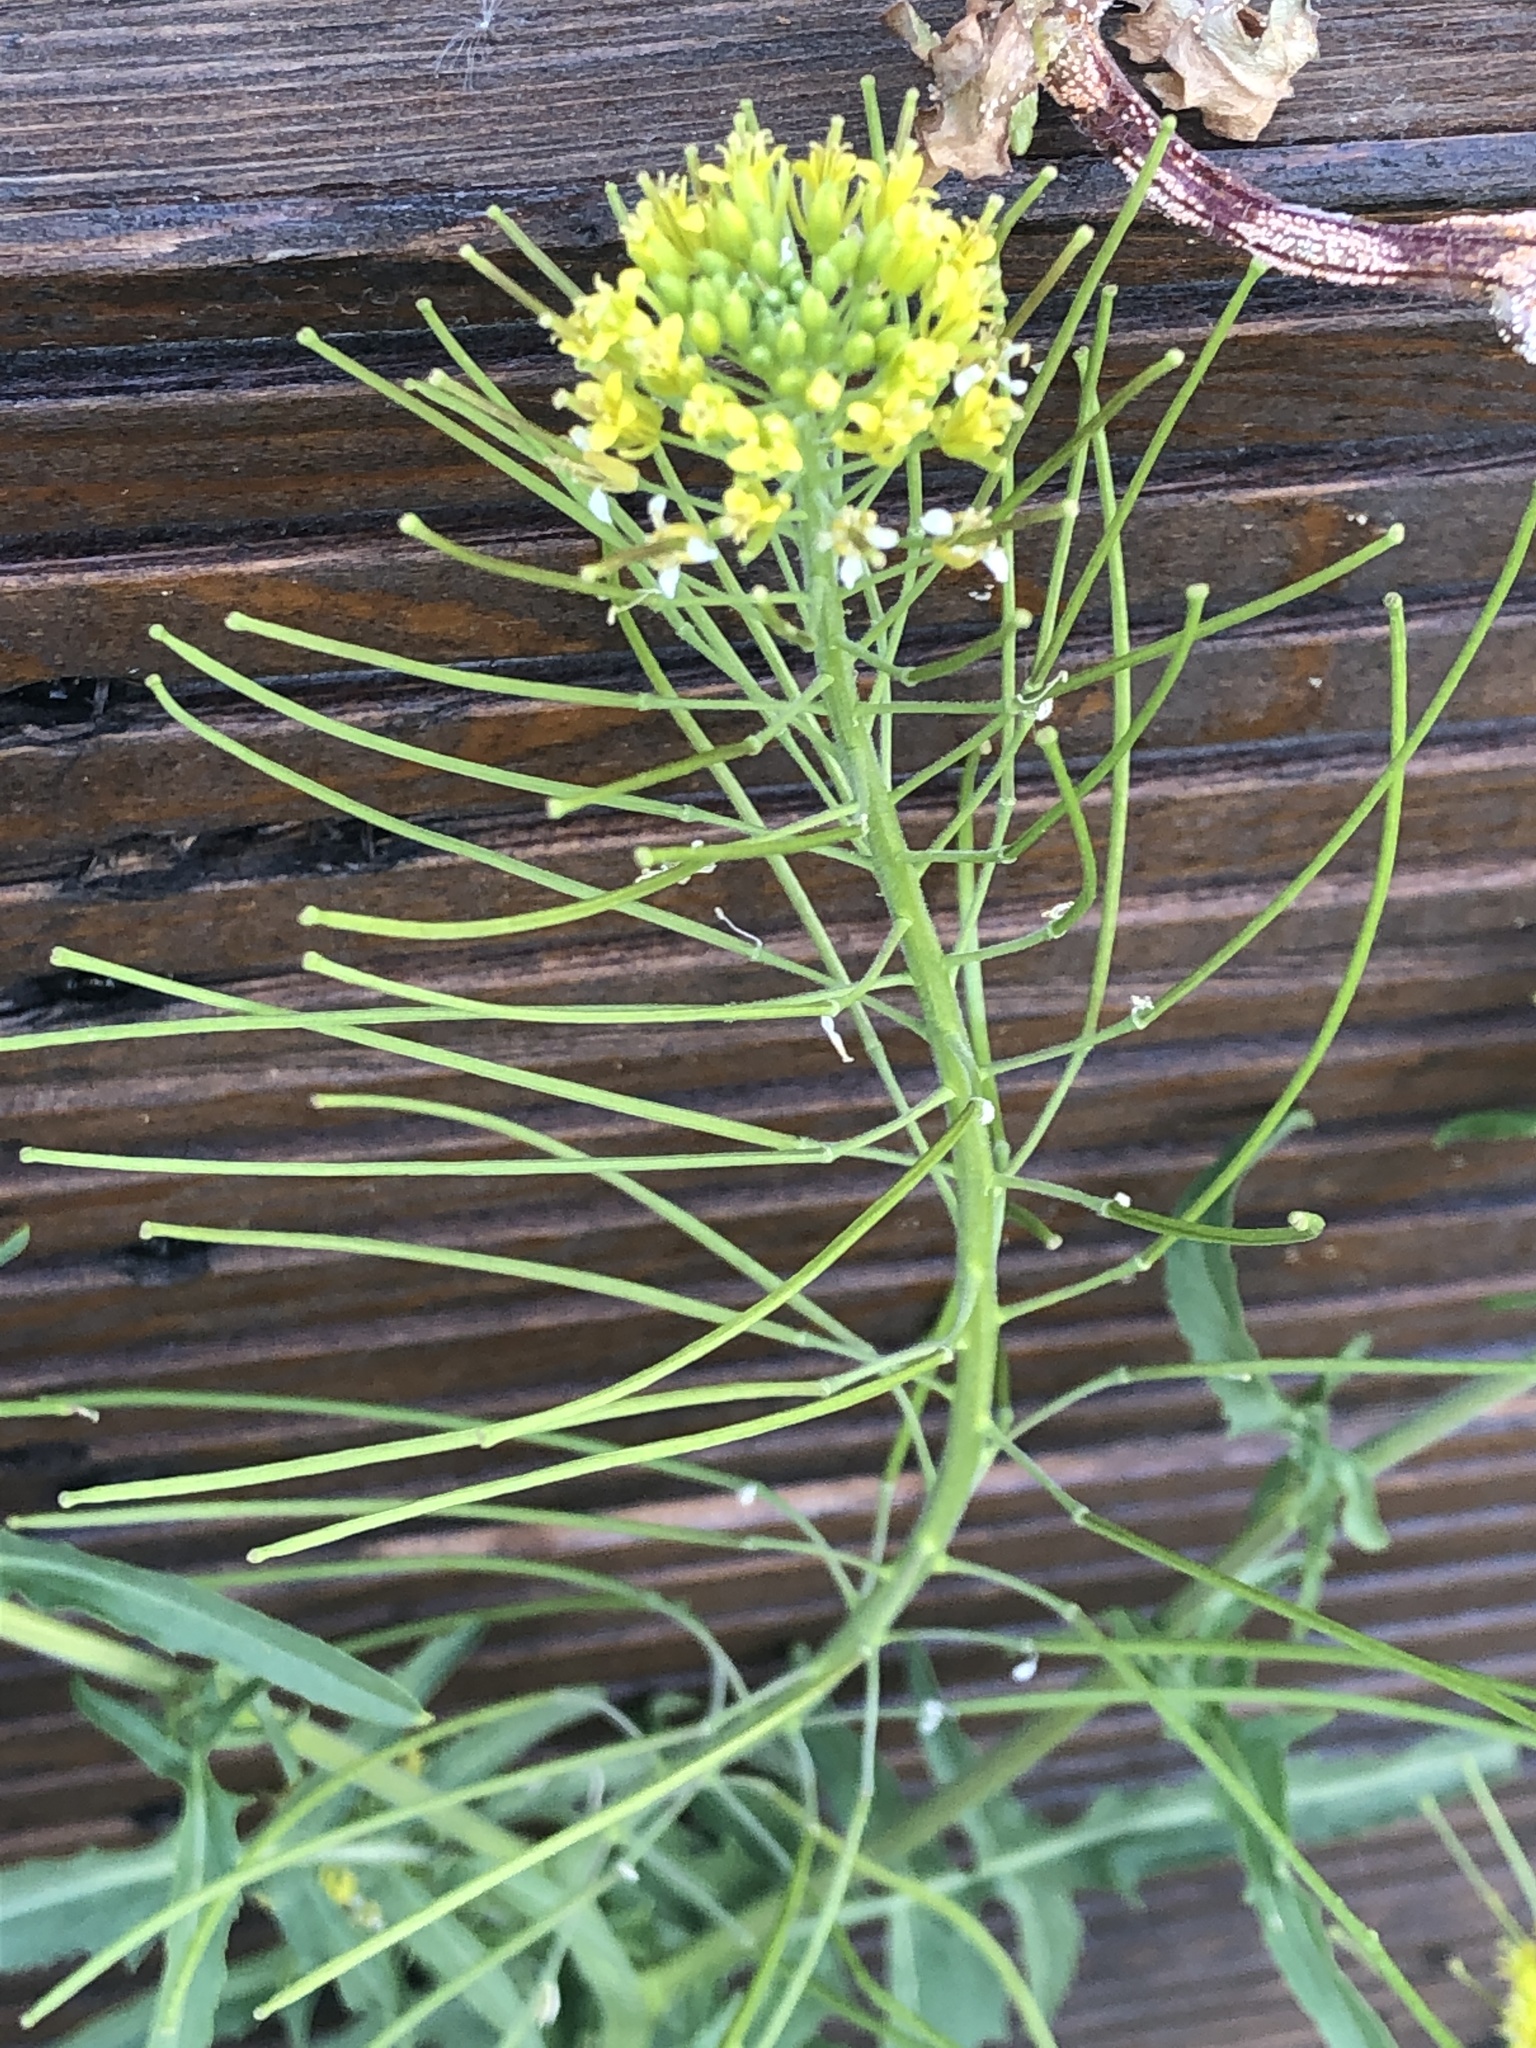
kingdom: Plantae
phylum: Tracheophyta
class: Magnoliopsida
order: Brassicales
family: Brassicaceae
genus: Sisymbrium
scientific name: Sisymbrium irio
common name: London rocket
